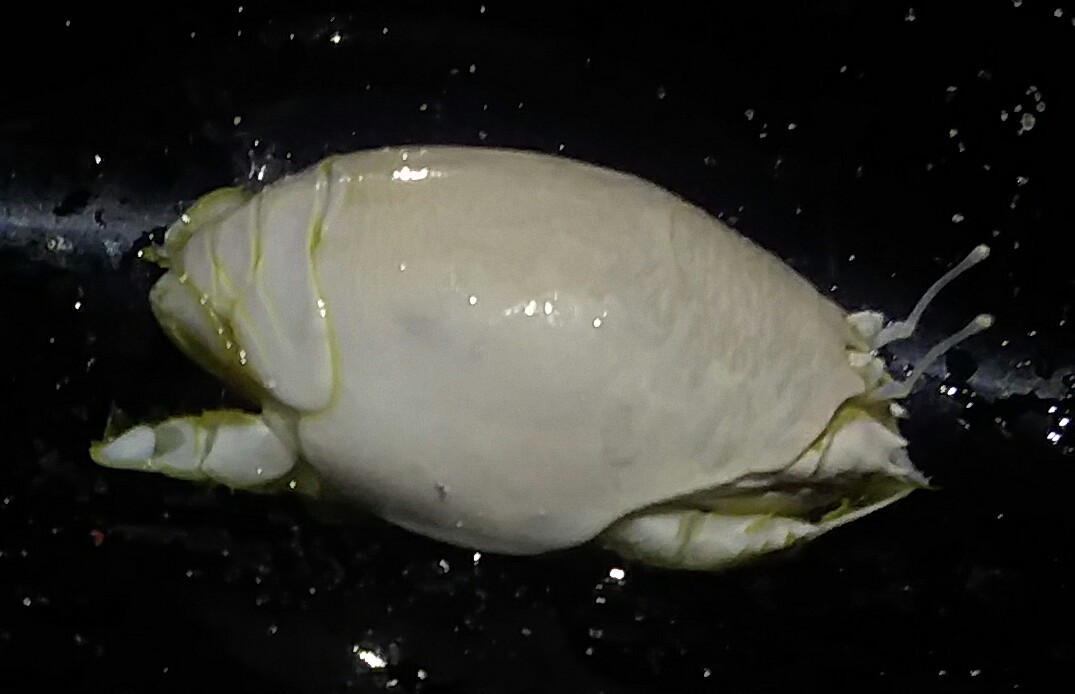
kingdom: Animalia
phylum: Arthropoda
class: Malacostraca
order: Decapoda
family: Hippidae
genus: Emerita
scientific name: Emerita talpoida
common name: Atlantic sand crab
